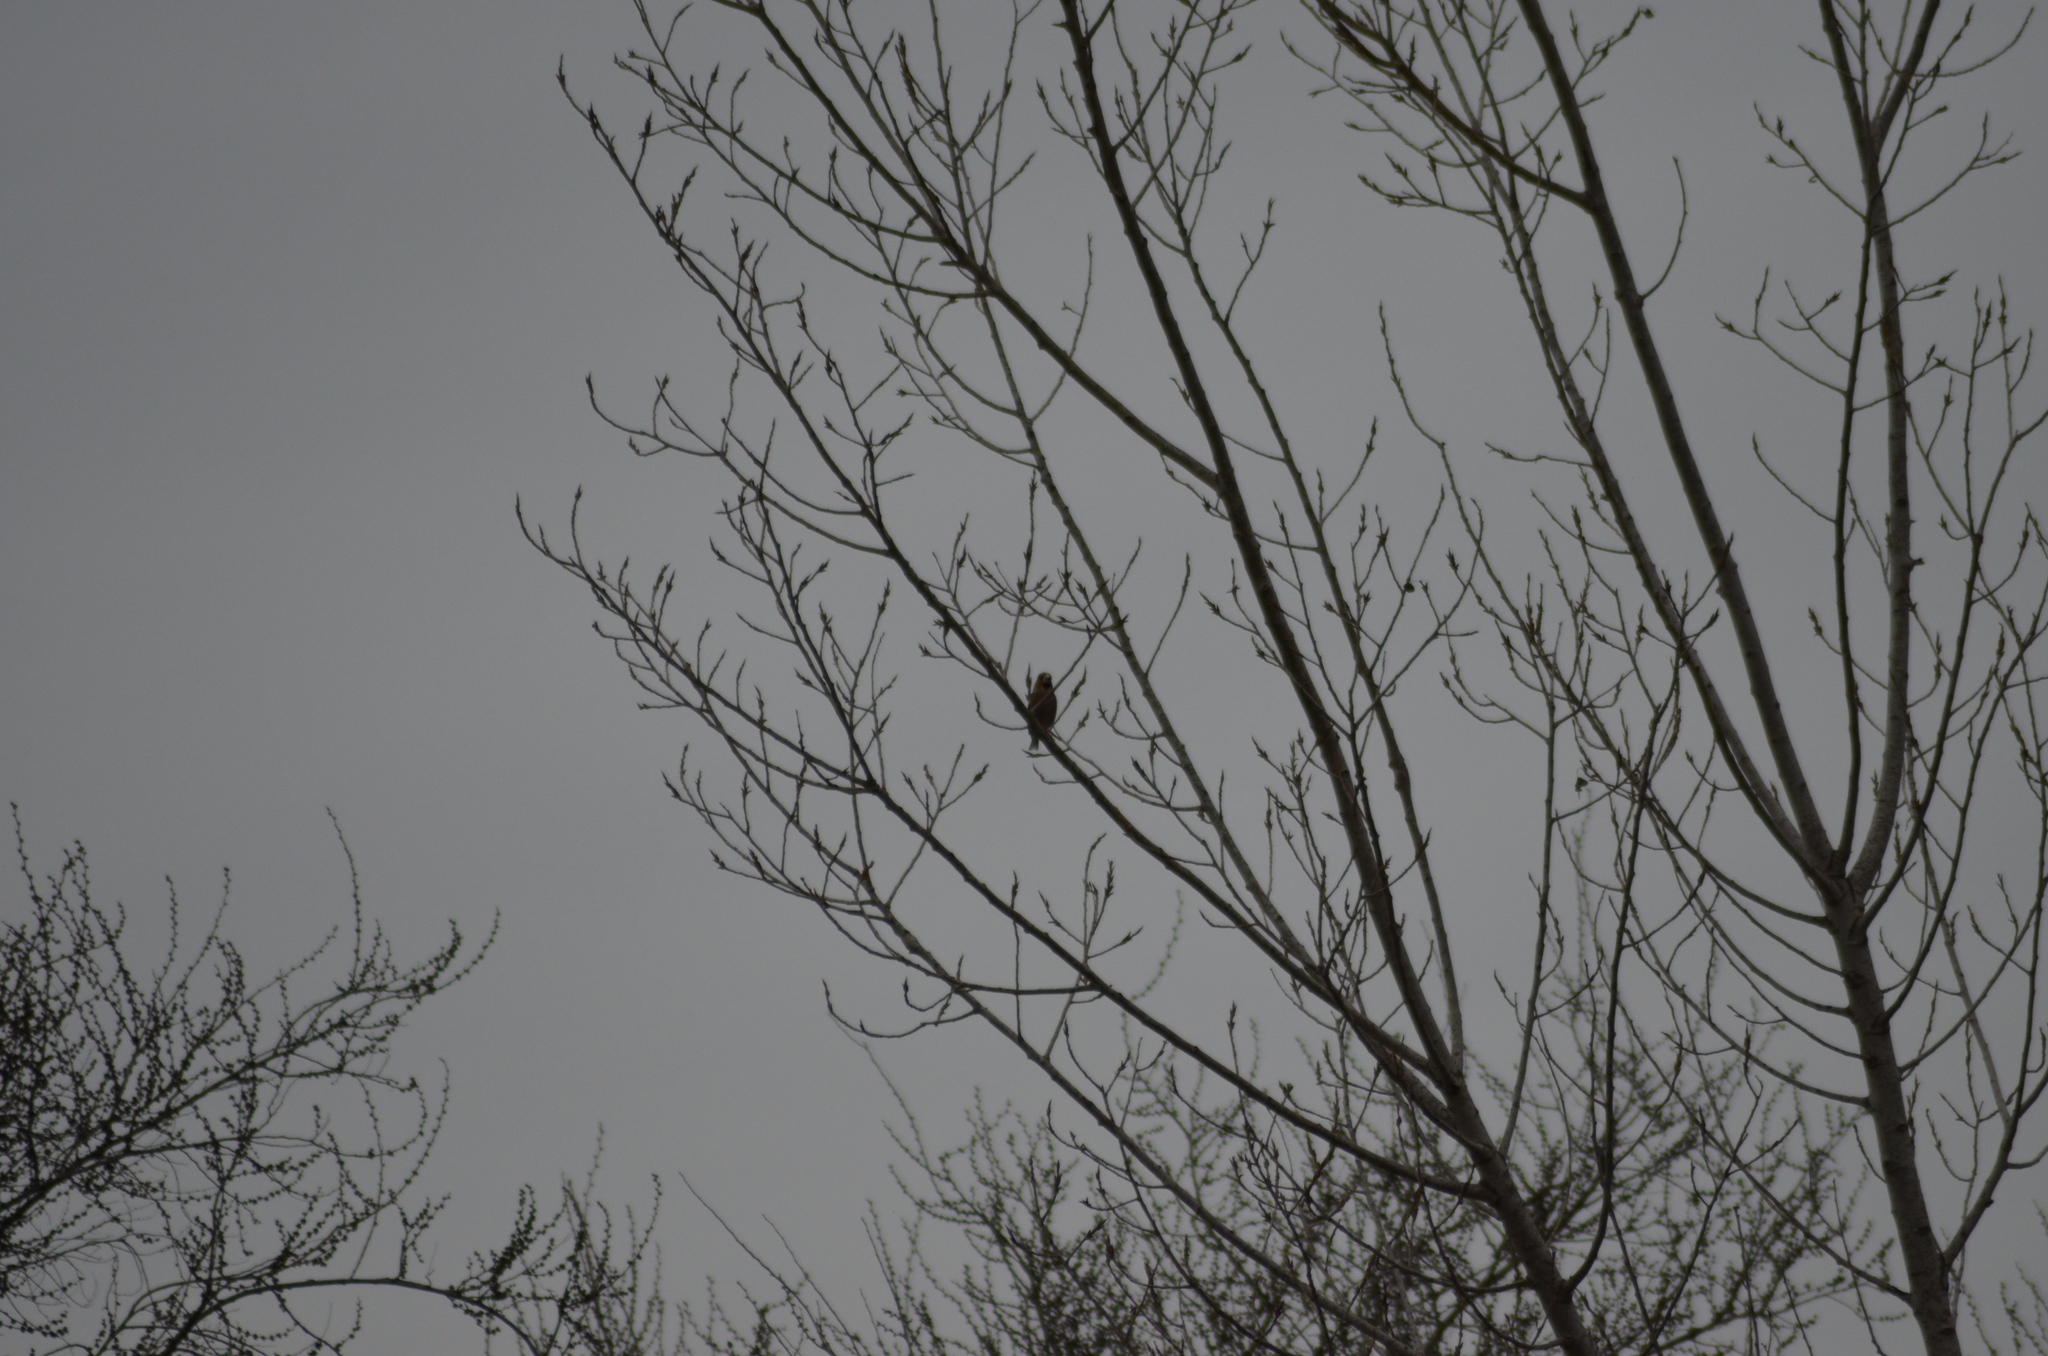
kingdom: Animalia
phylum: Chordata
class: Aves
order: Passeriformes
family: Fringillidae
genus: Coccothraustes
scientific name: Coccothraustes coccothraustes
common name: Hawfinch
